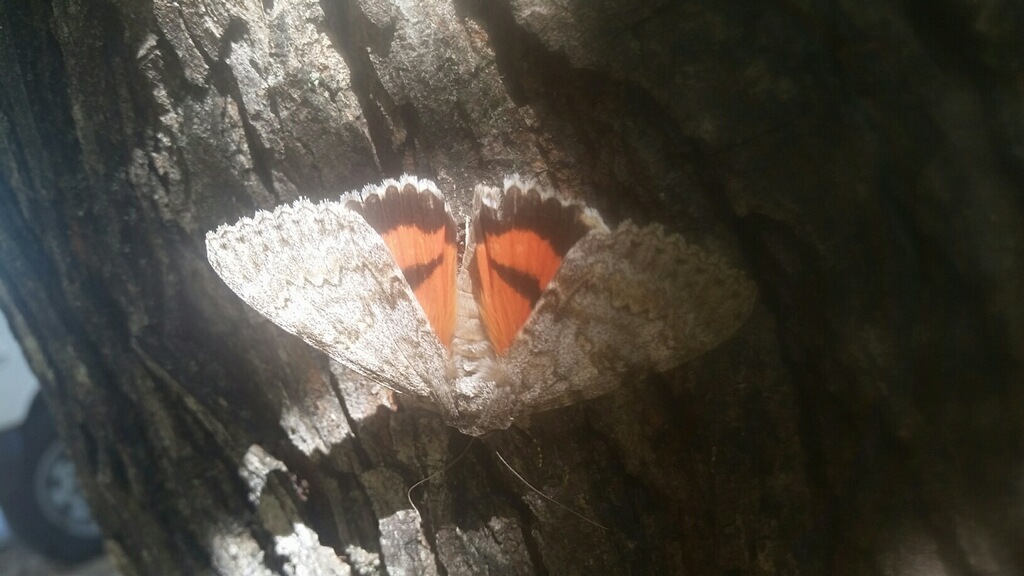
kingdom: Animalia
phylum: Arthropoda
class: Insecta
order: Lepidoptera
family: Erebidae
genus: Catocala
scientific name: Catocala
